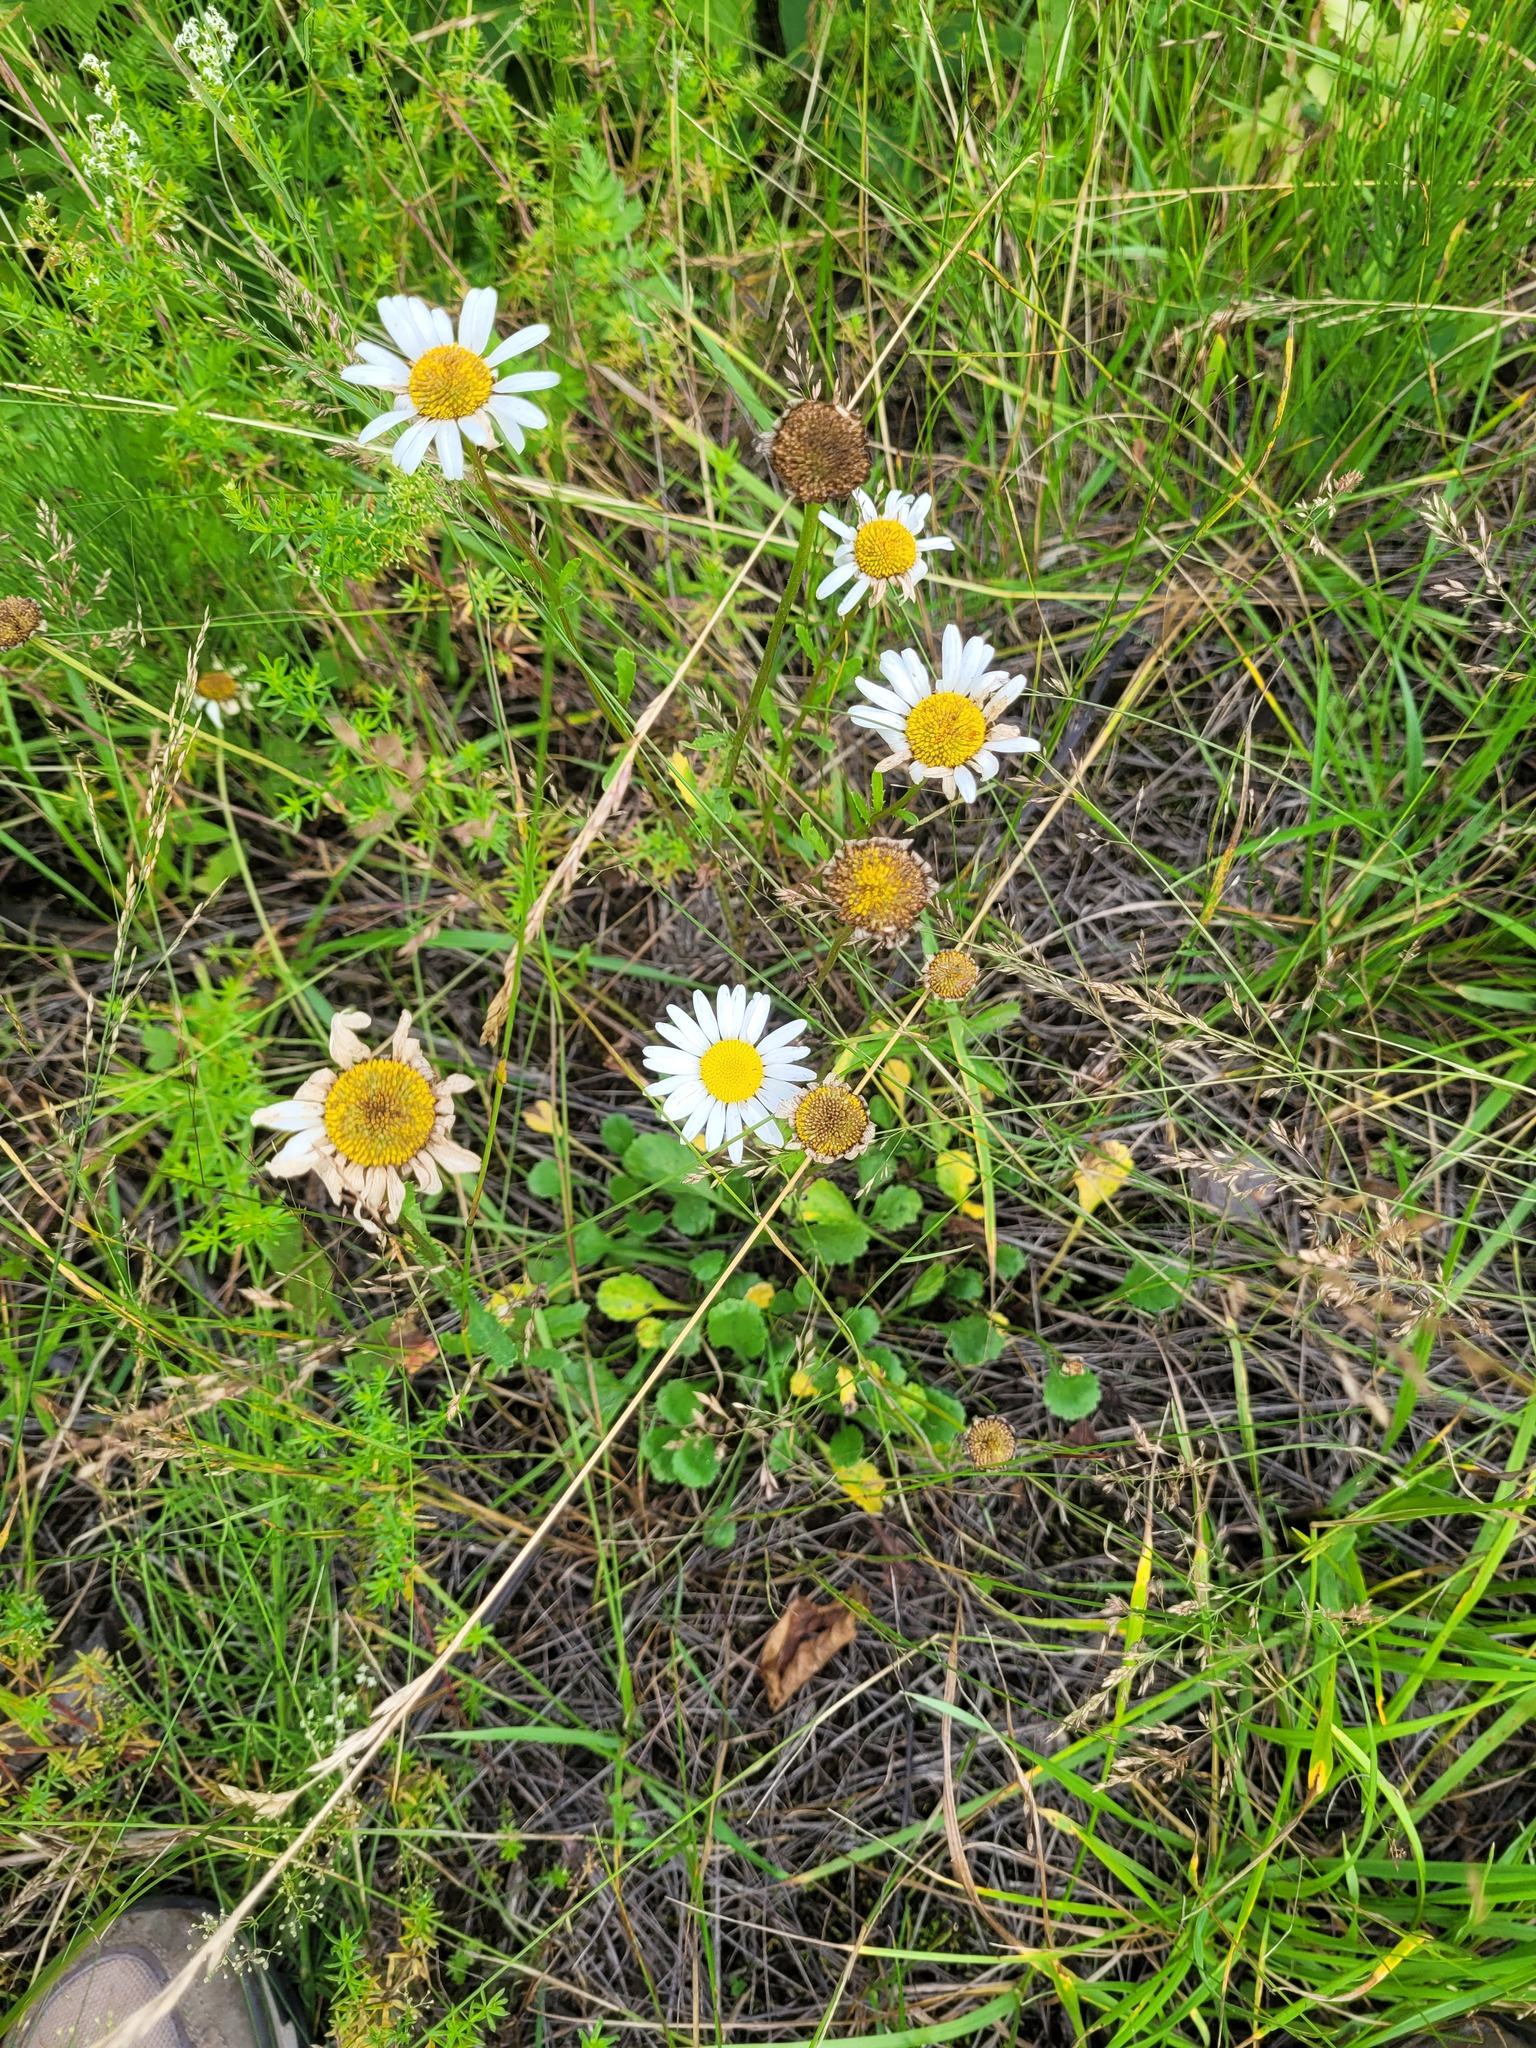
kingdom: Plantae
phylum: Tracheophyta
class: Magnoliopsida
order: Asterales
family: Asteraceae
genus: Leucanthemum
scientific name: Leucanthemum vulgare
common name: Oxeye daisy
